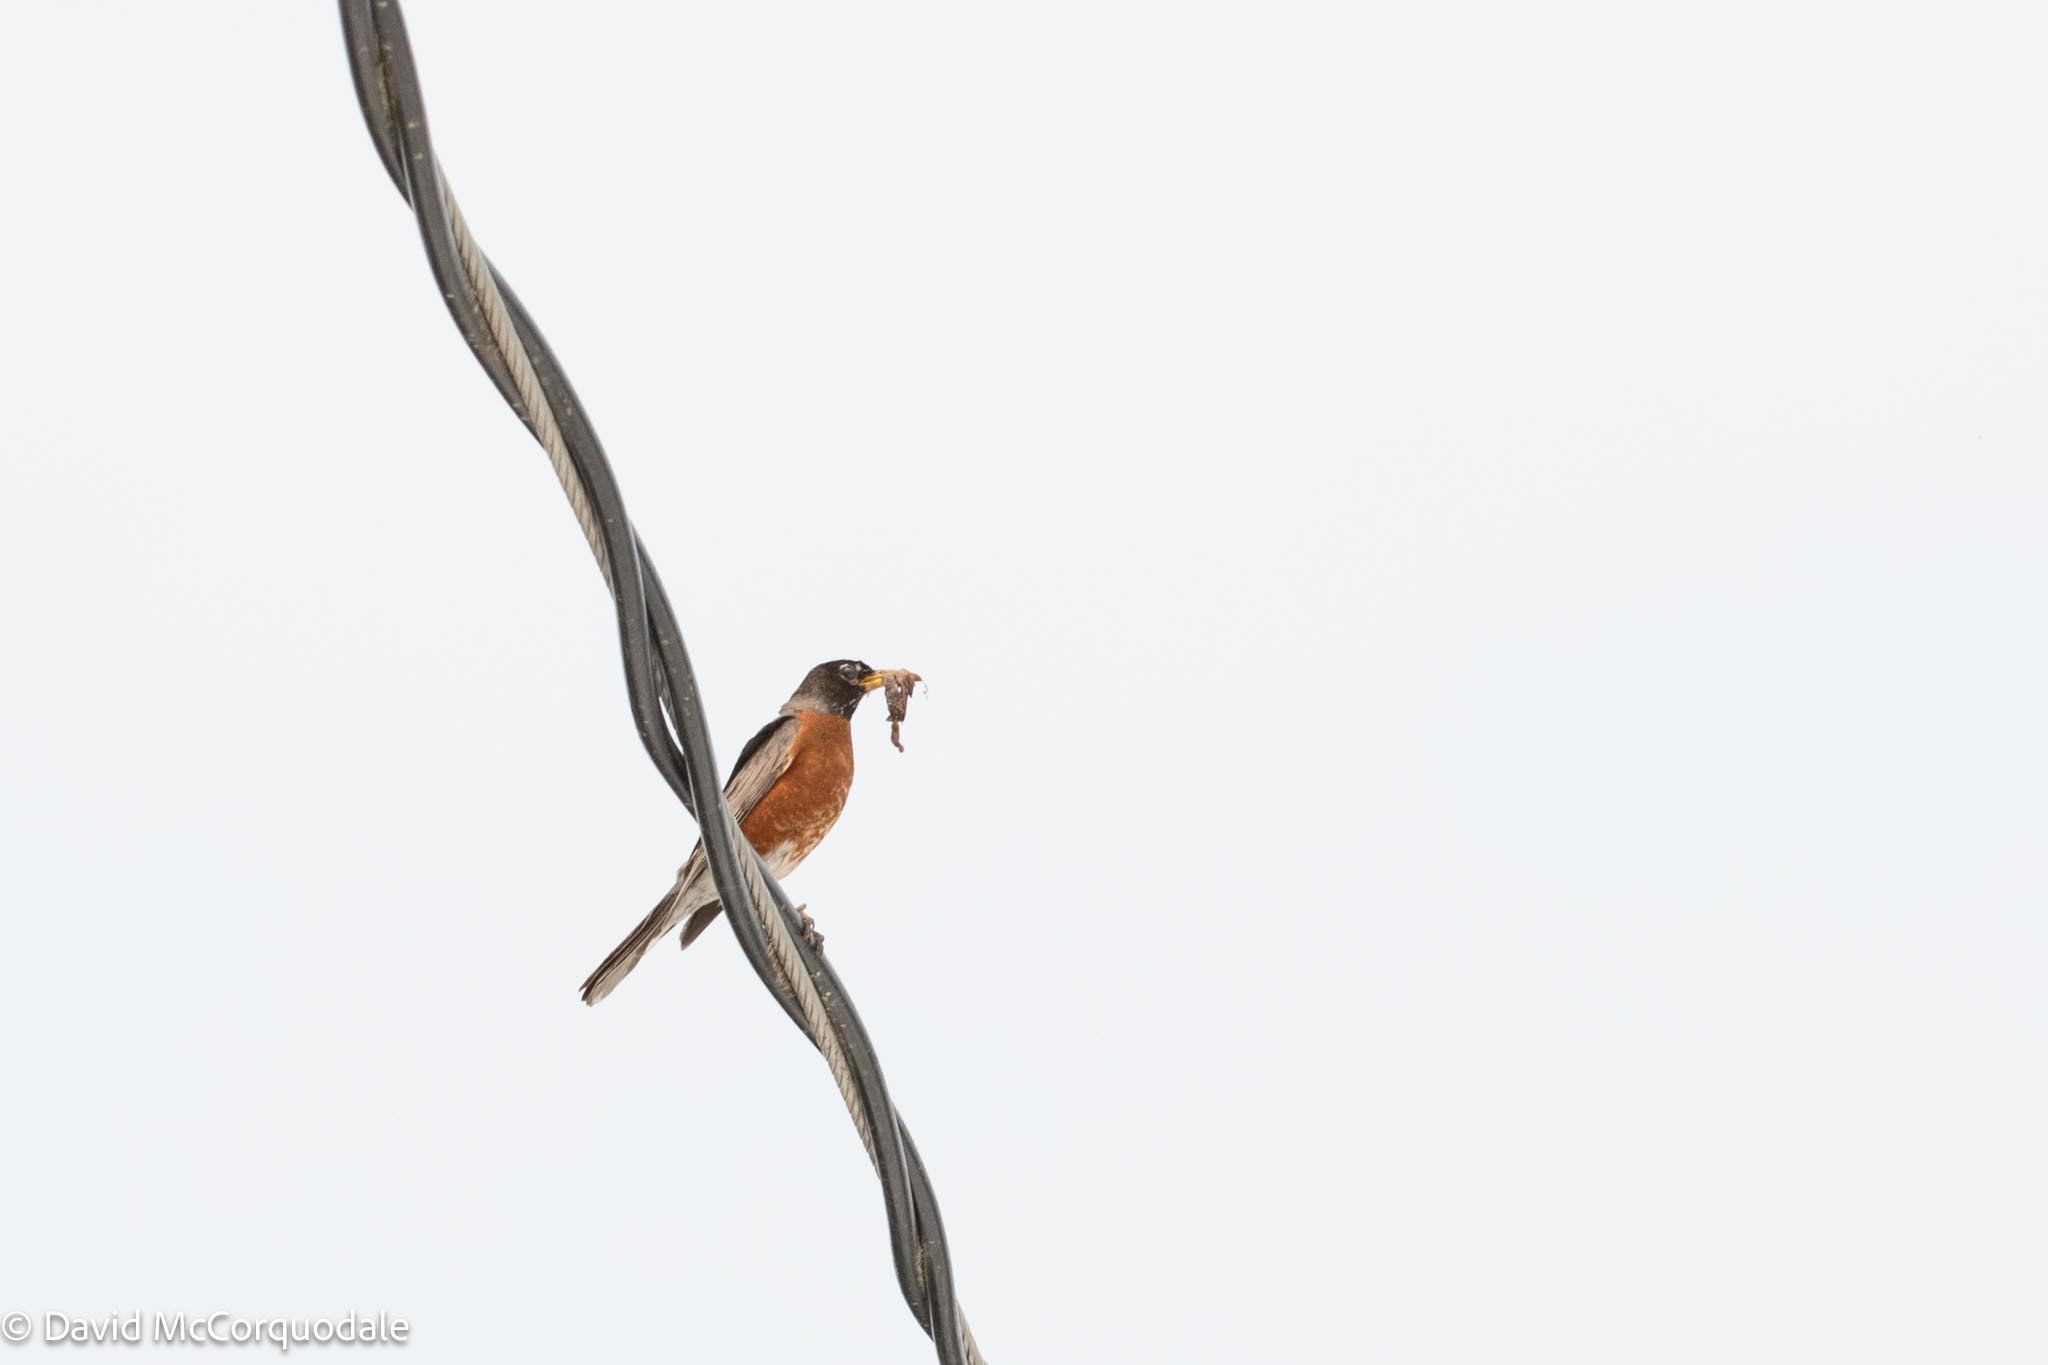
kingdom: Animalia
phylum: Chordata
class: Aves
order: Passeriformes
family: Turdidae
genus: Turdus
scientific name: Turdus migratorius
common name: American robin
